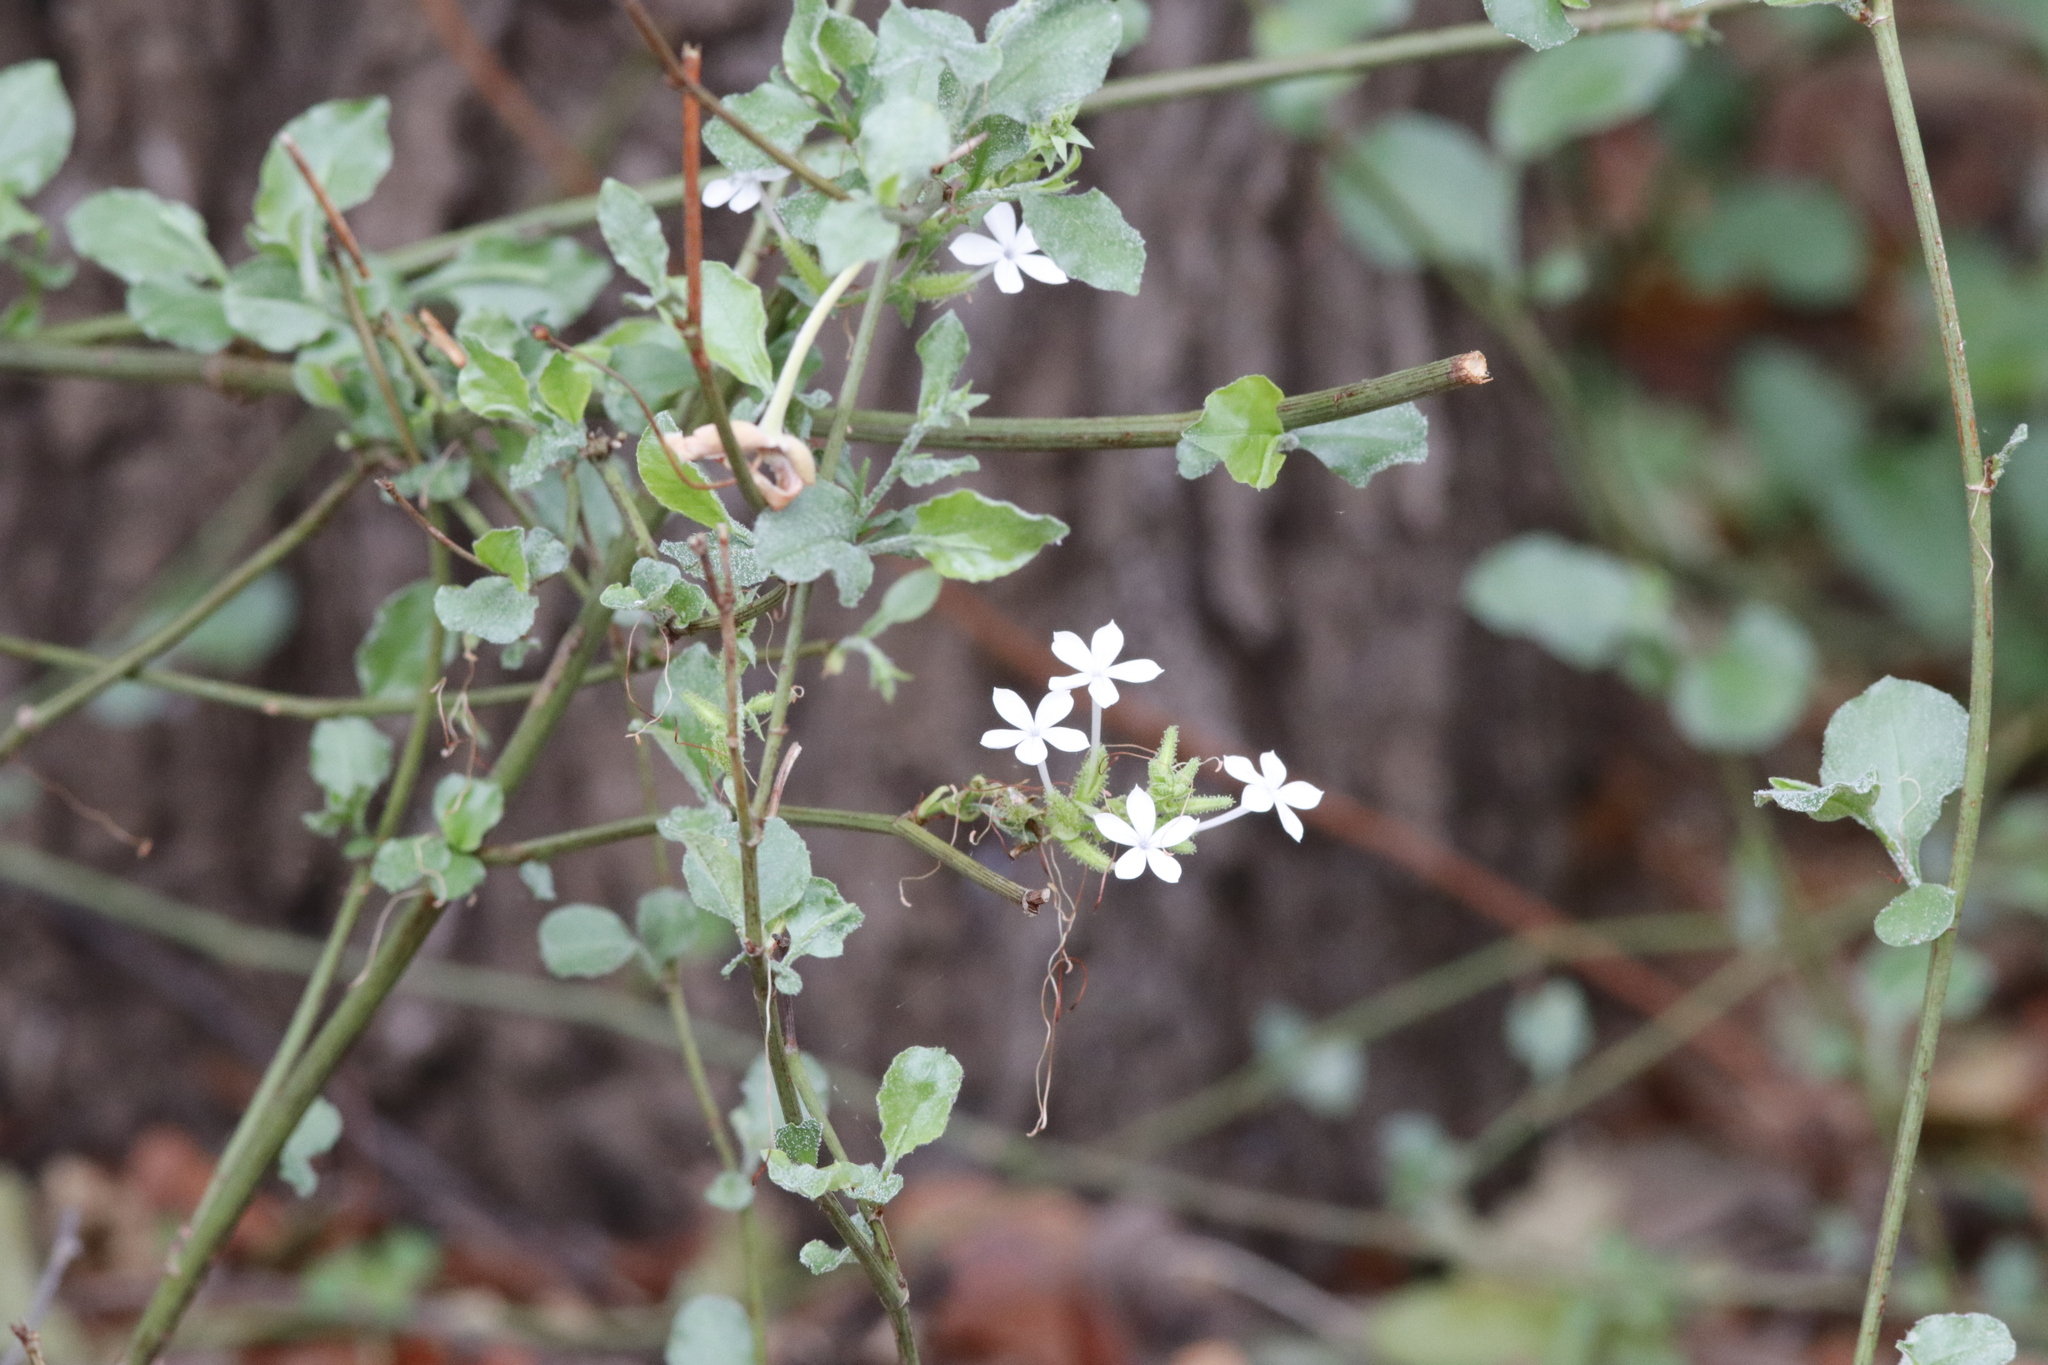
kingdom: Plantae
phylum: Tracheophyta
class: Magnoliopsida
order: Caryophyllales
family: Plumbaginaceae
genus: Plumbago
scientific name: Plumbago zeylanica
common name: Doctorbush
